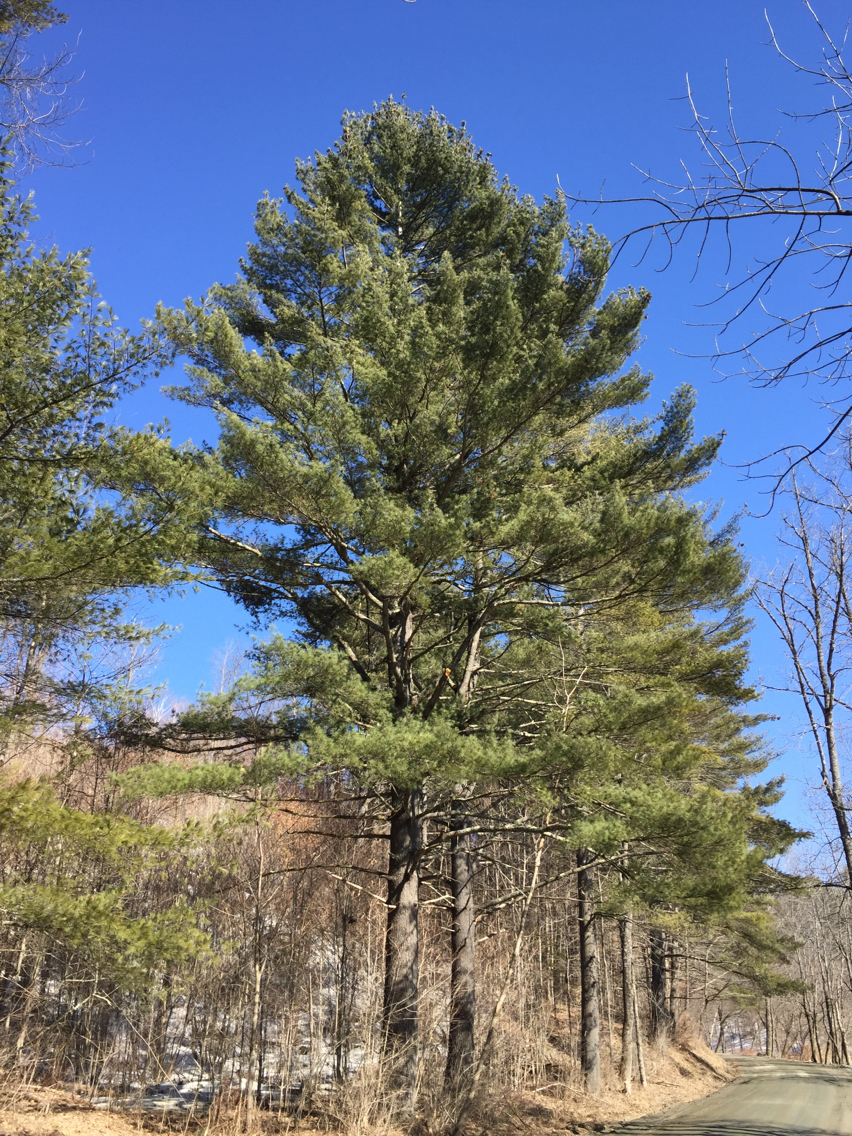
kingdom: Plantae
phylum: Tracheophyta
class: Pinopsida
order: Pinales
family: Pinaceae
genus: Pinus
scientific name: Pinus strobus
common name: Weymouth pine
